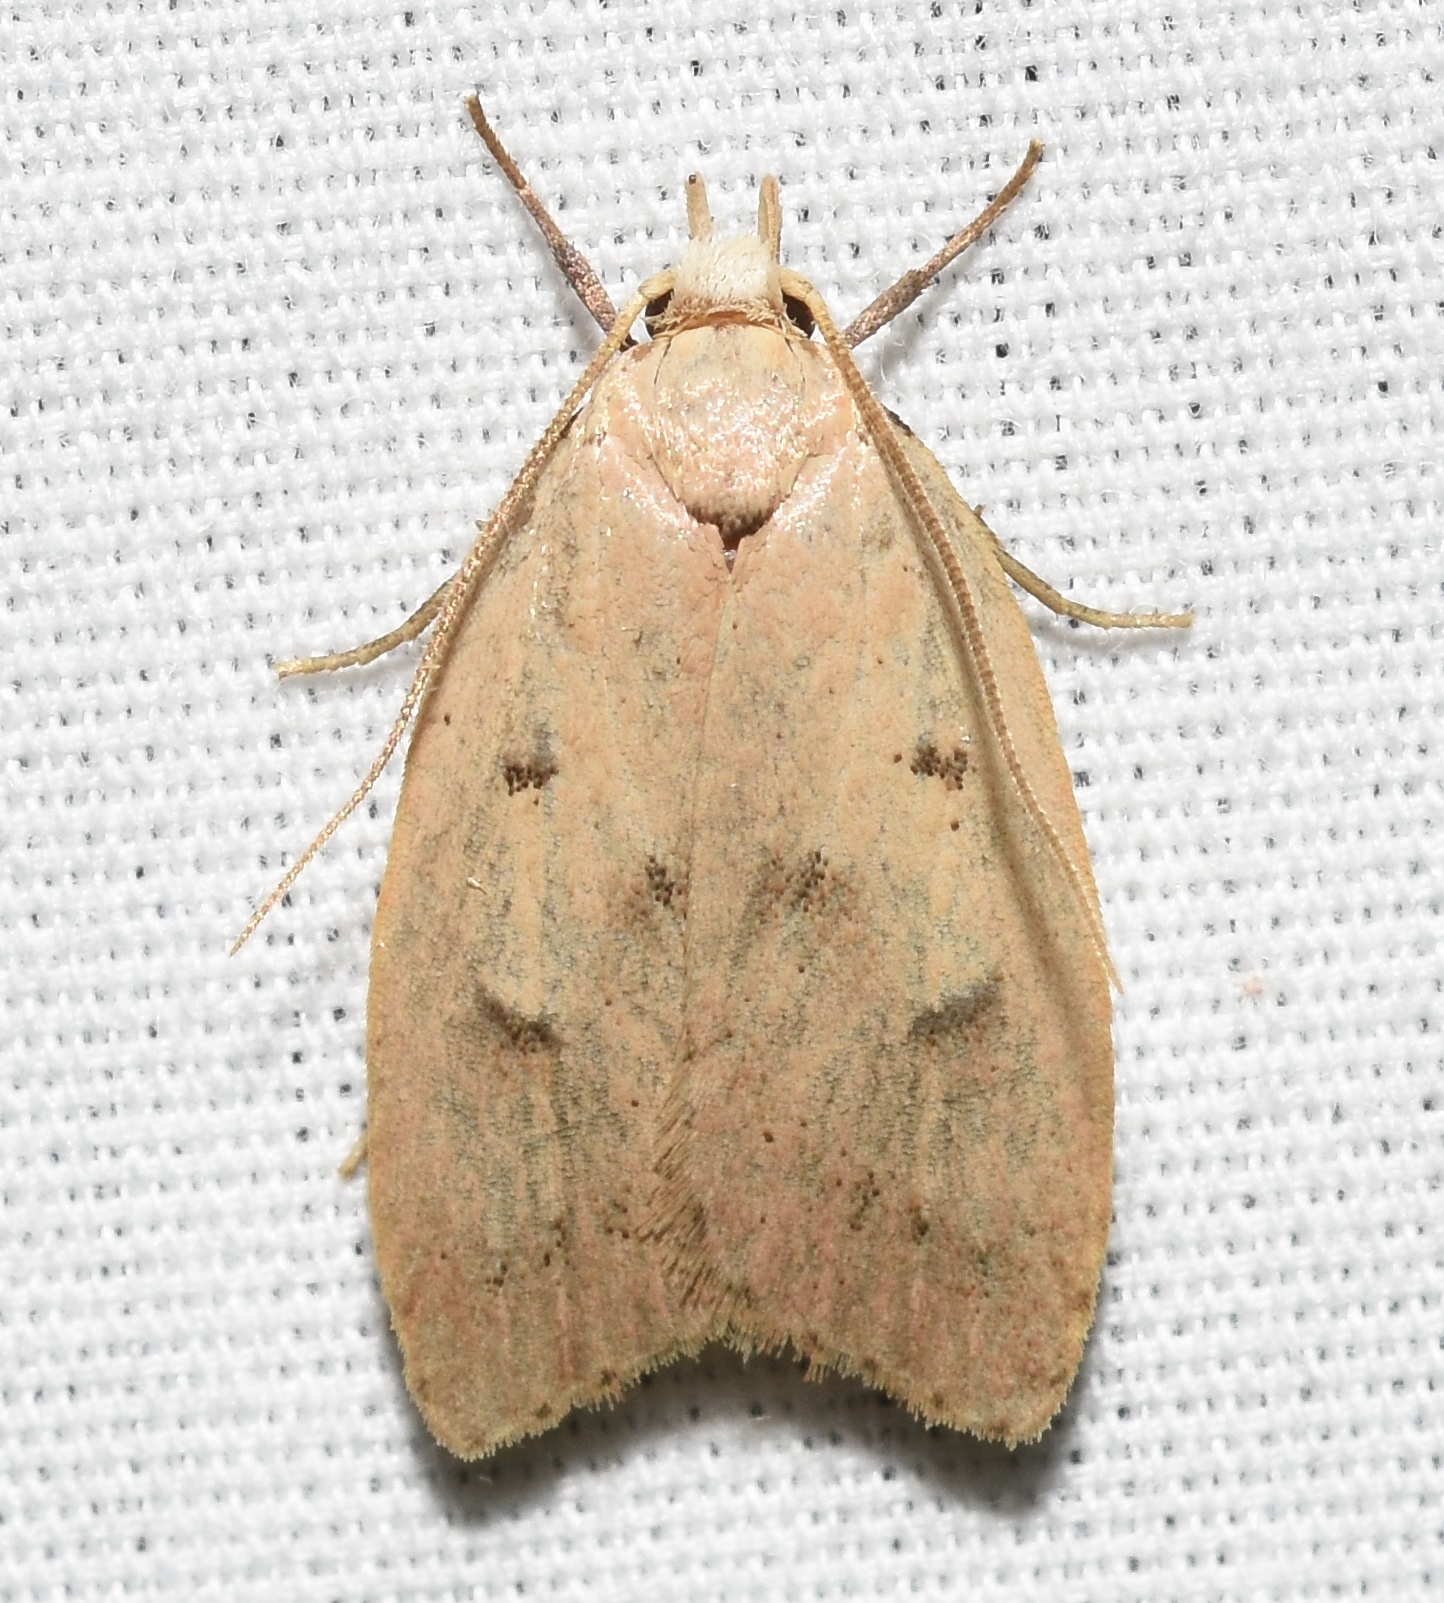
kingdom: Animalia
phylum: Arthropoda
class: Insecta
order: Lepidoptera
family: Peleopodidae
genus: Machimia
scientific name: Machimia tentoriferella
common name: Gold-striped leaftier moth
